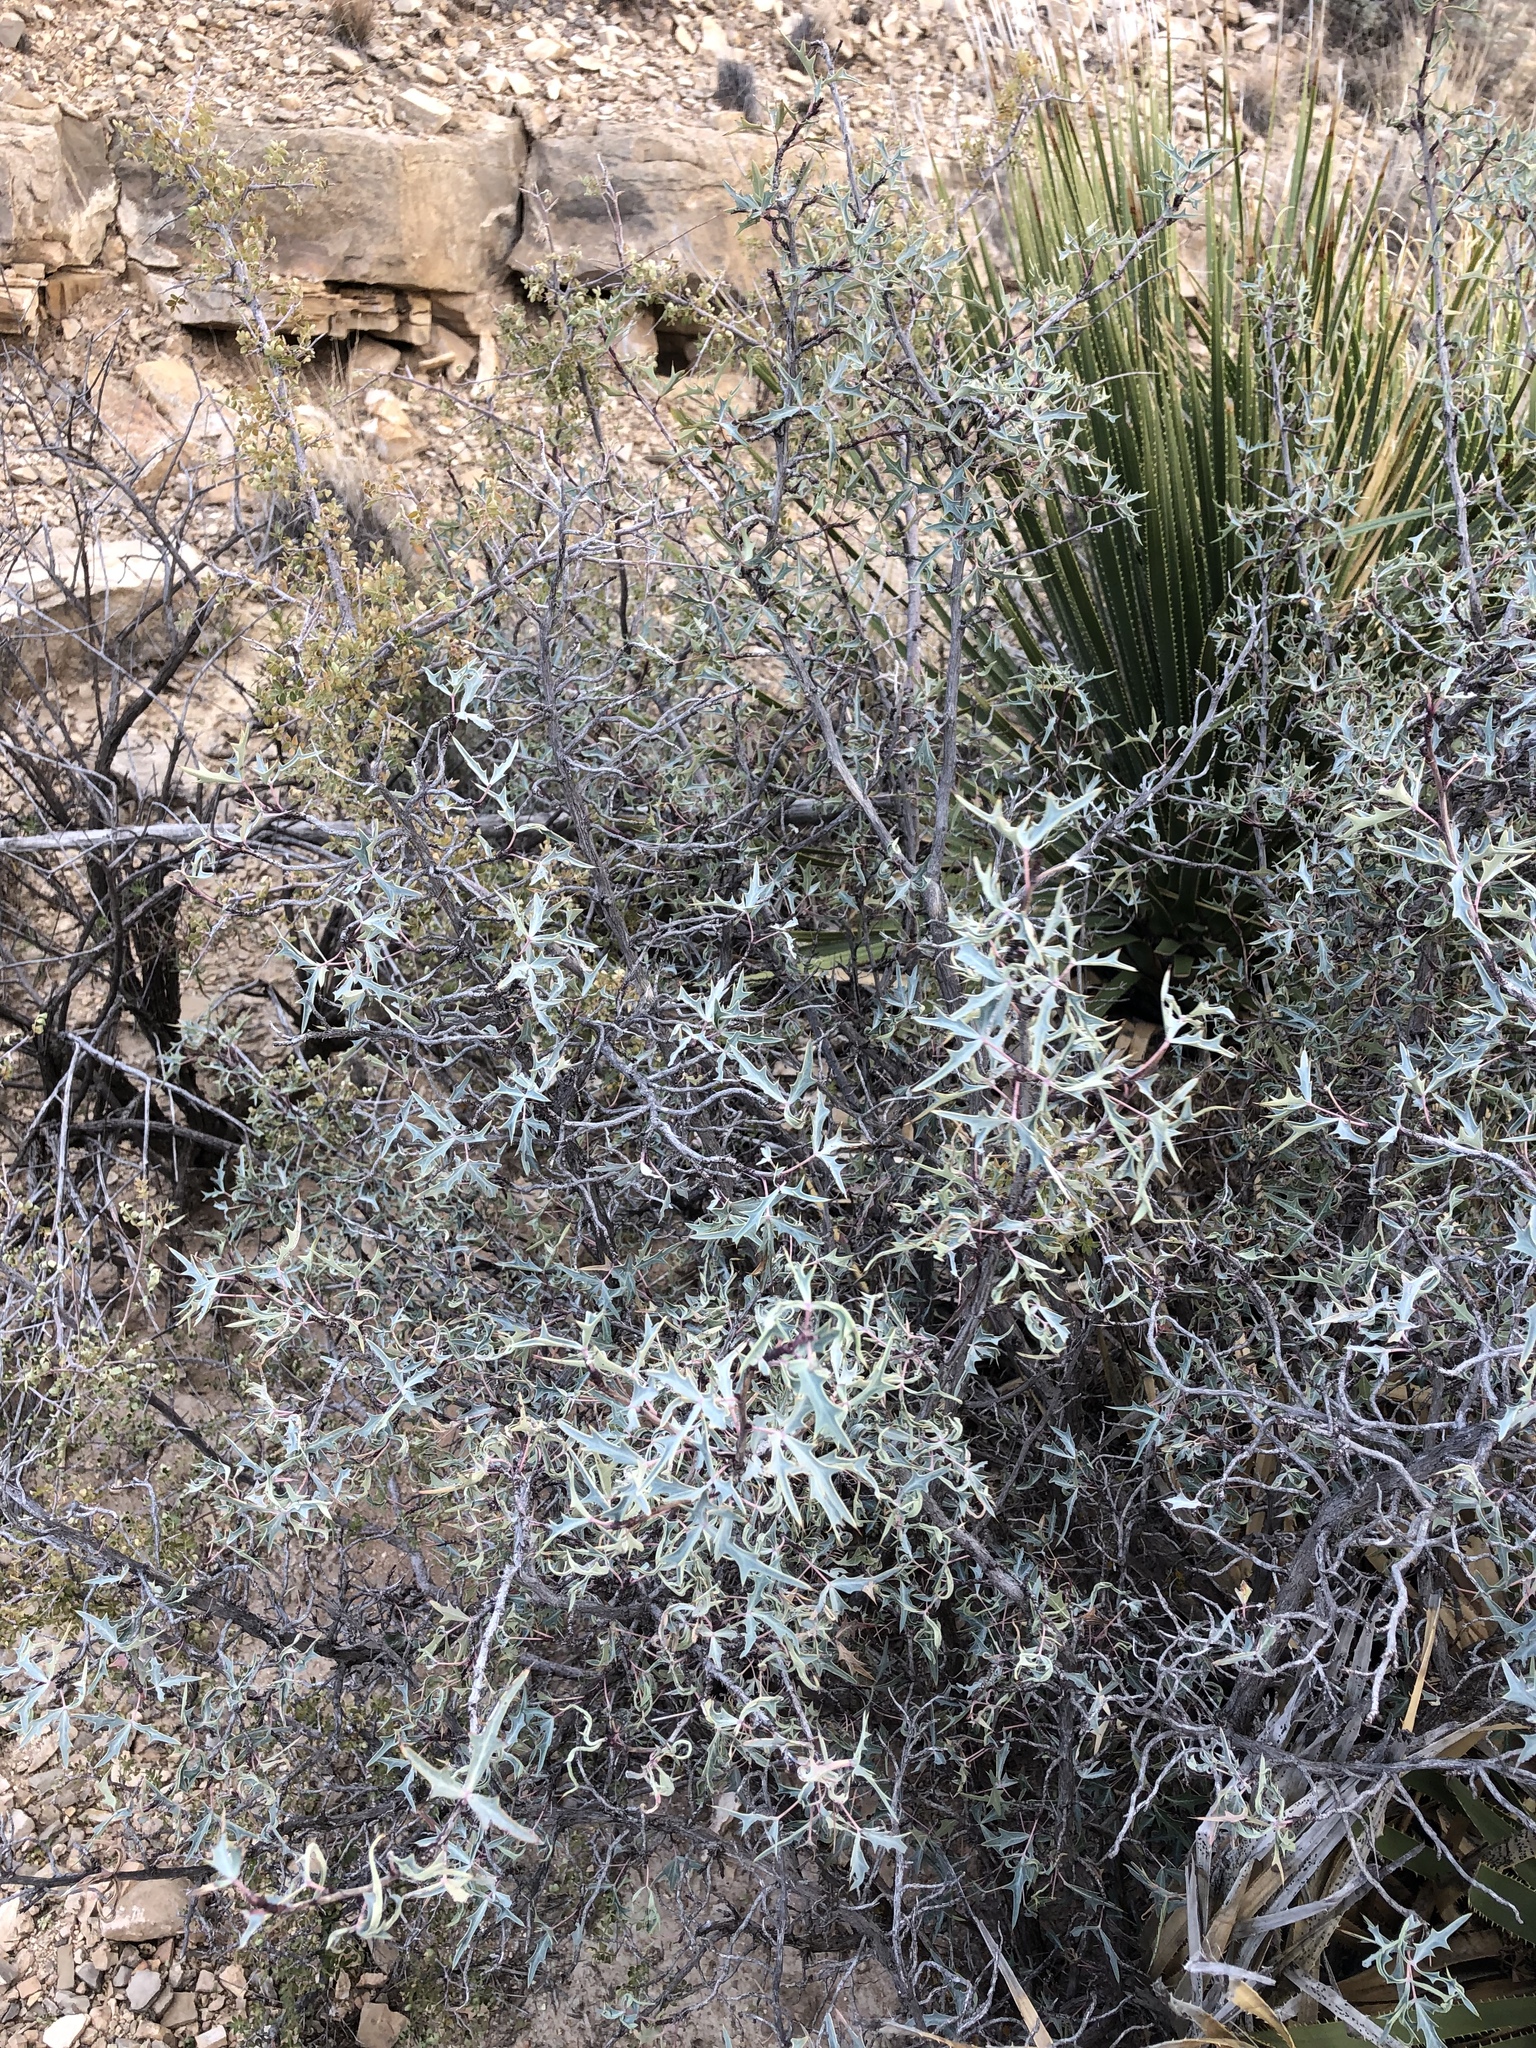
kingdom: Plantae
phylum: Tracheophyta
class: Magnoliopsida
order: Ranunculales
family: Berberidaceae
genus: Alloberberis
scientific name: Alloberberis trifoliolata
